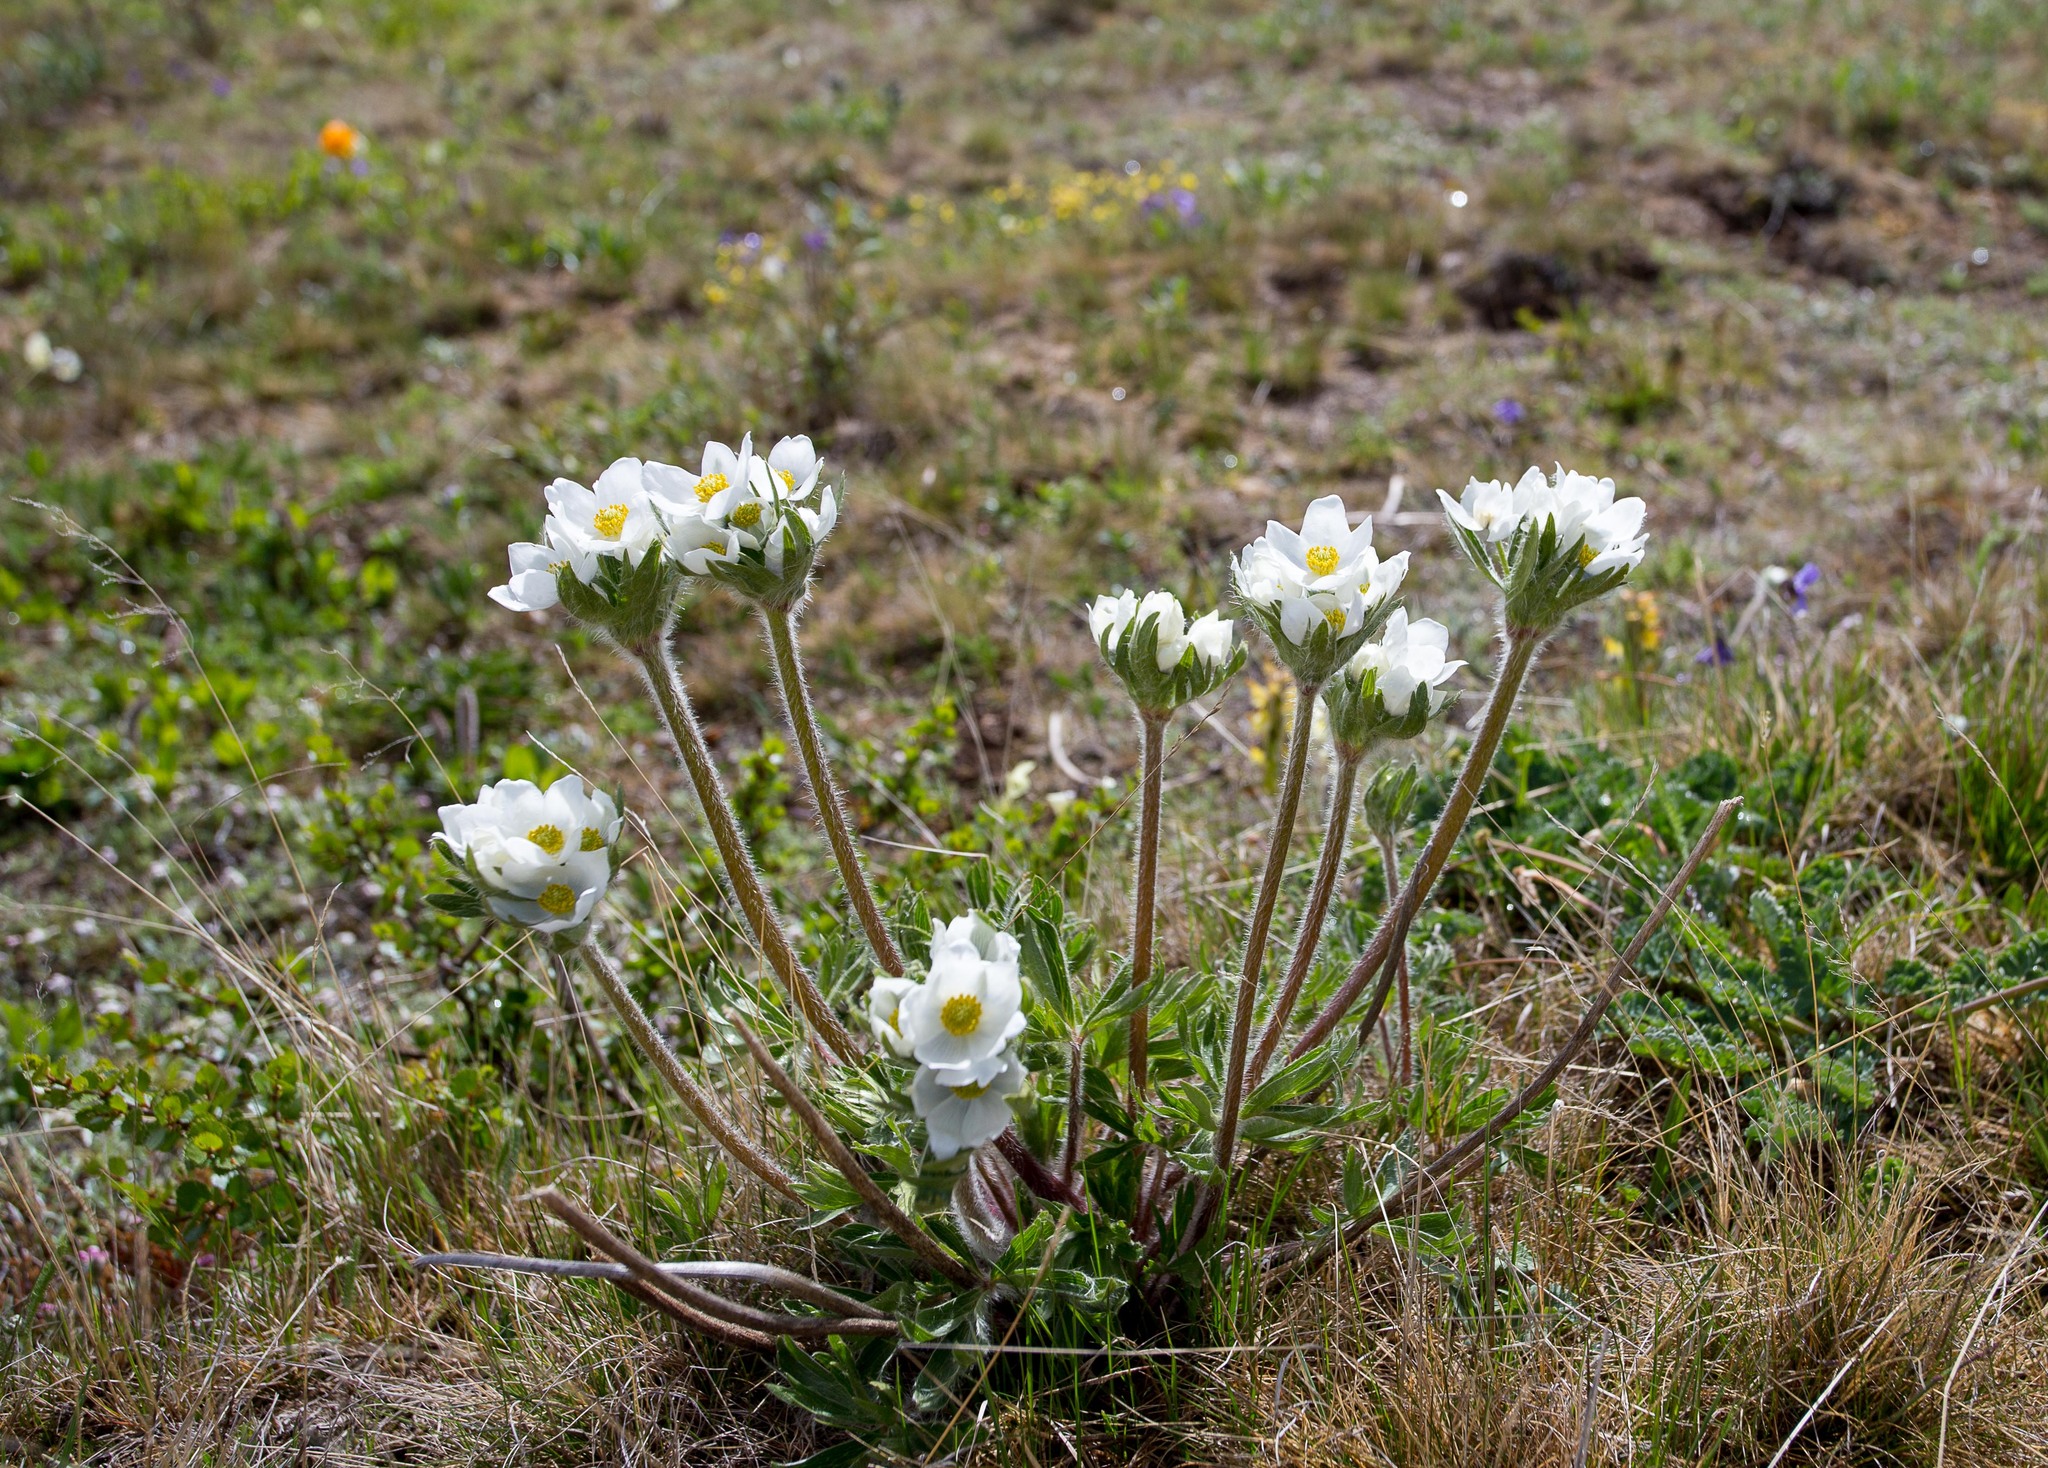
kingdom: Plantae
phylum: Tracheophyta
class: Magnoliopsida
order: Ranunculales
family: Ranunculaceae
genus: Anemonastrum
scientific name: Anemonastrum narcissiflorum
